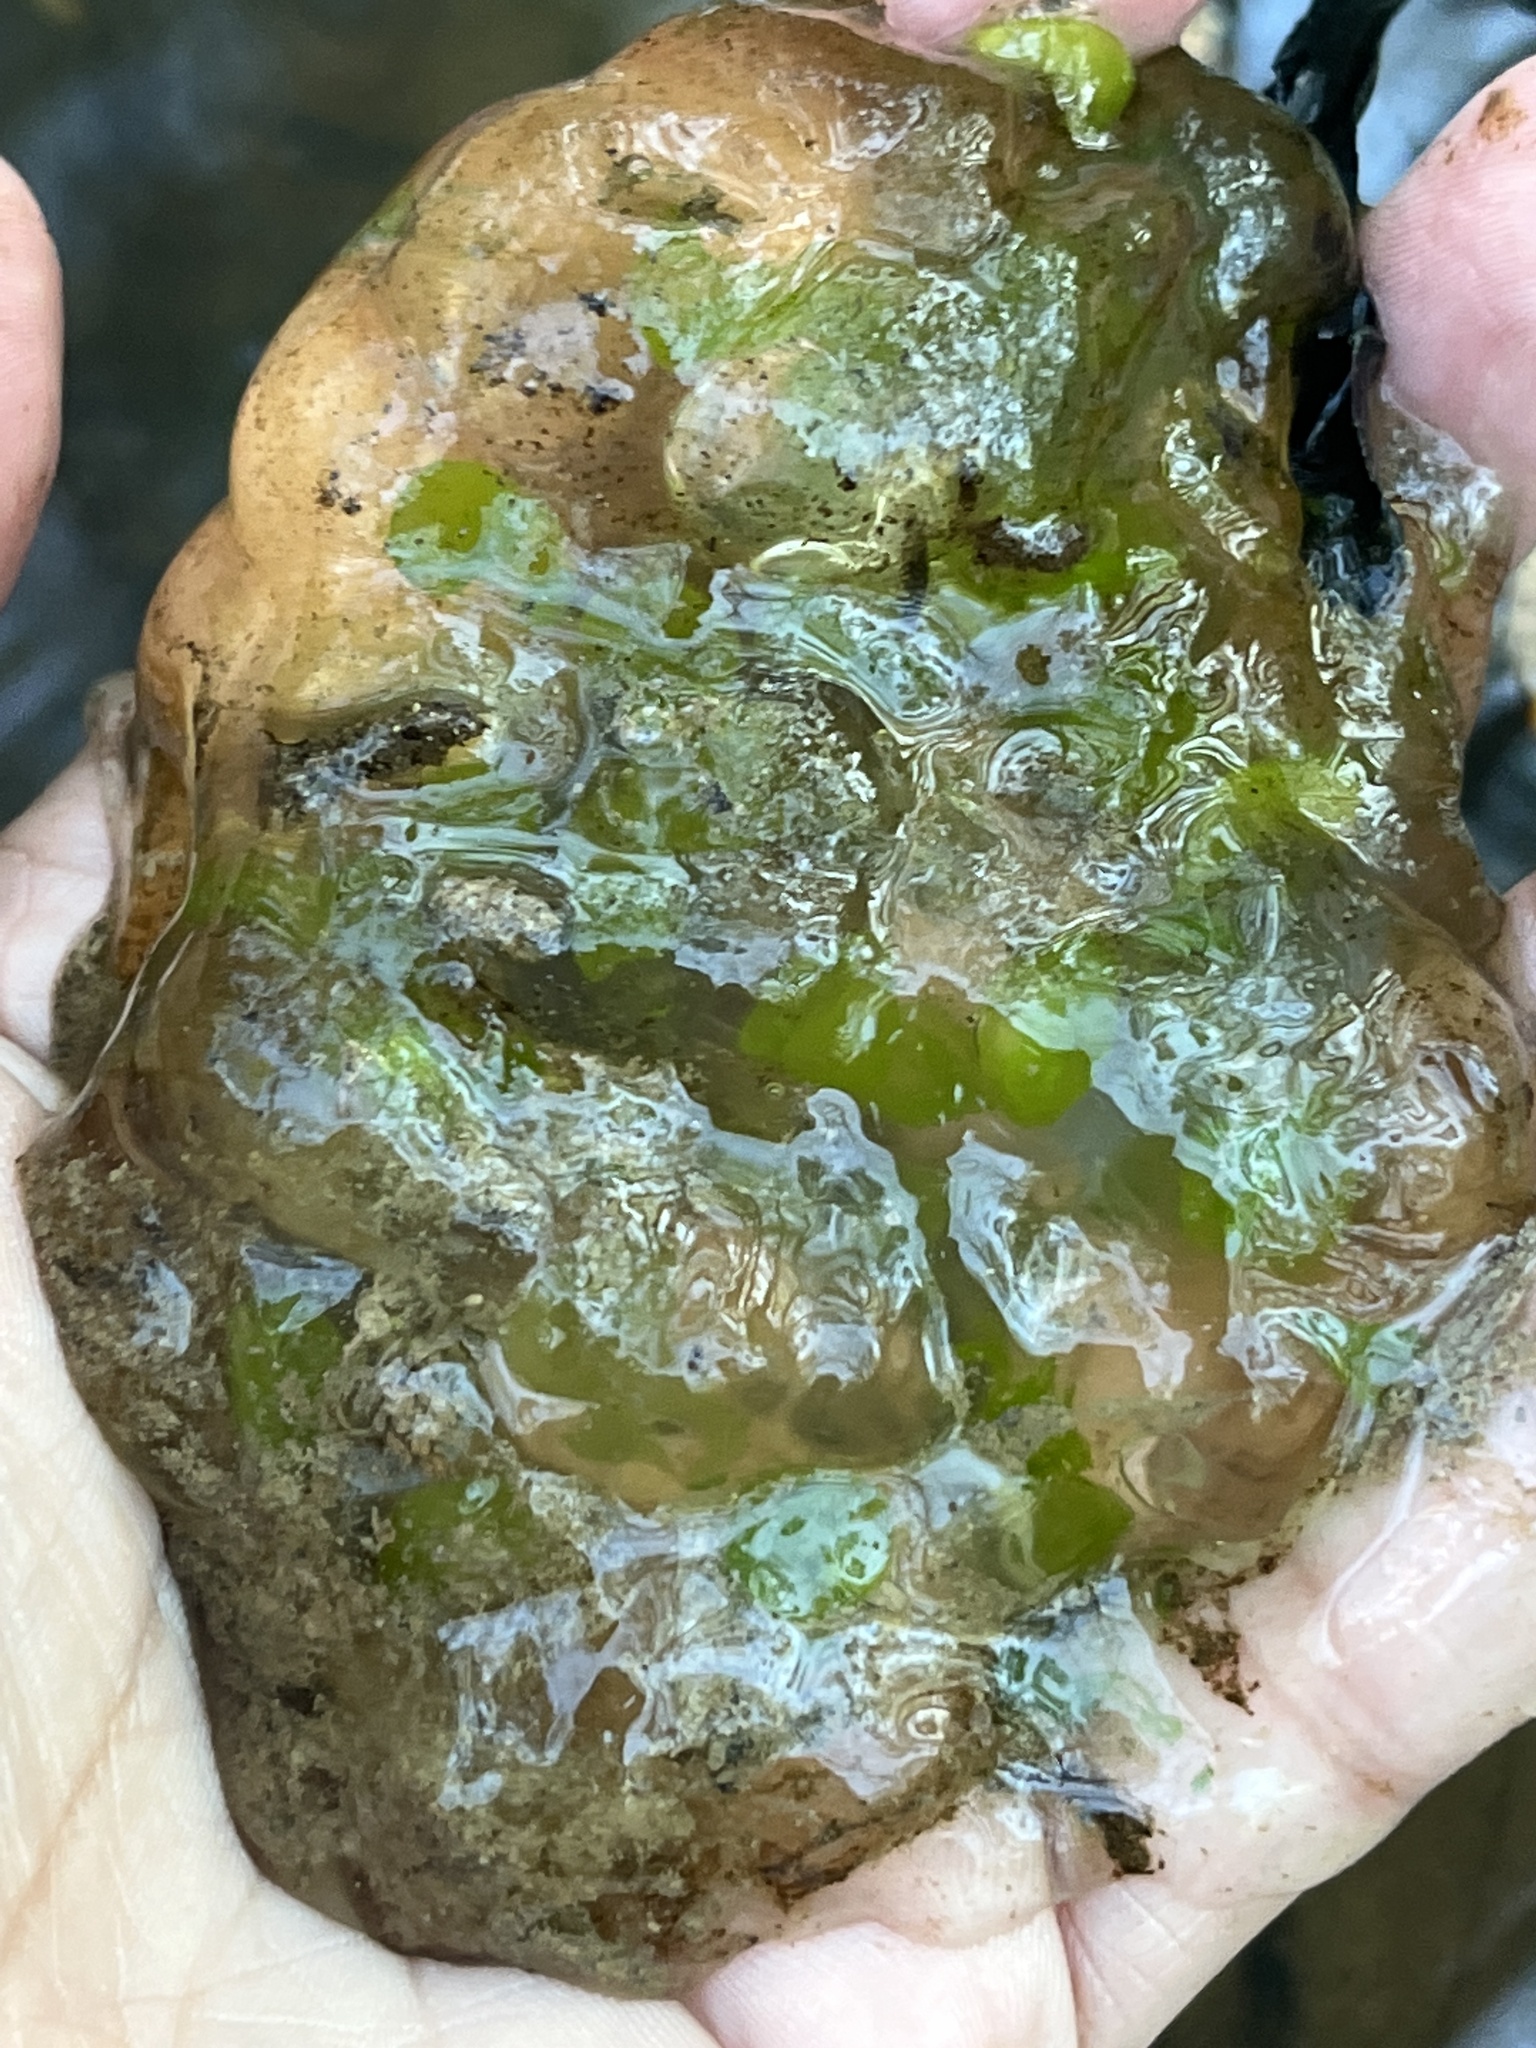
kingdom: Animalia
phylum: Chordata
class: Amphibia
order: Caudata
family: Ambystomatidae
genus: Ambystoma
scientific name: Ambystoma maculatum
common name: Spotted salamander
